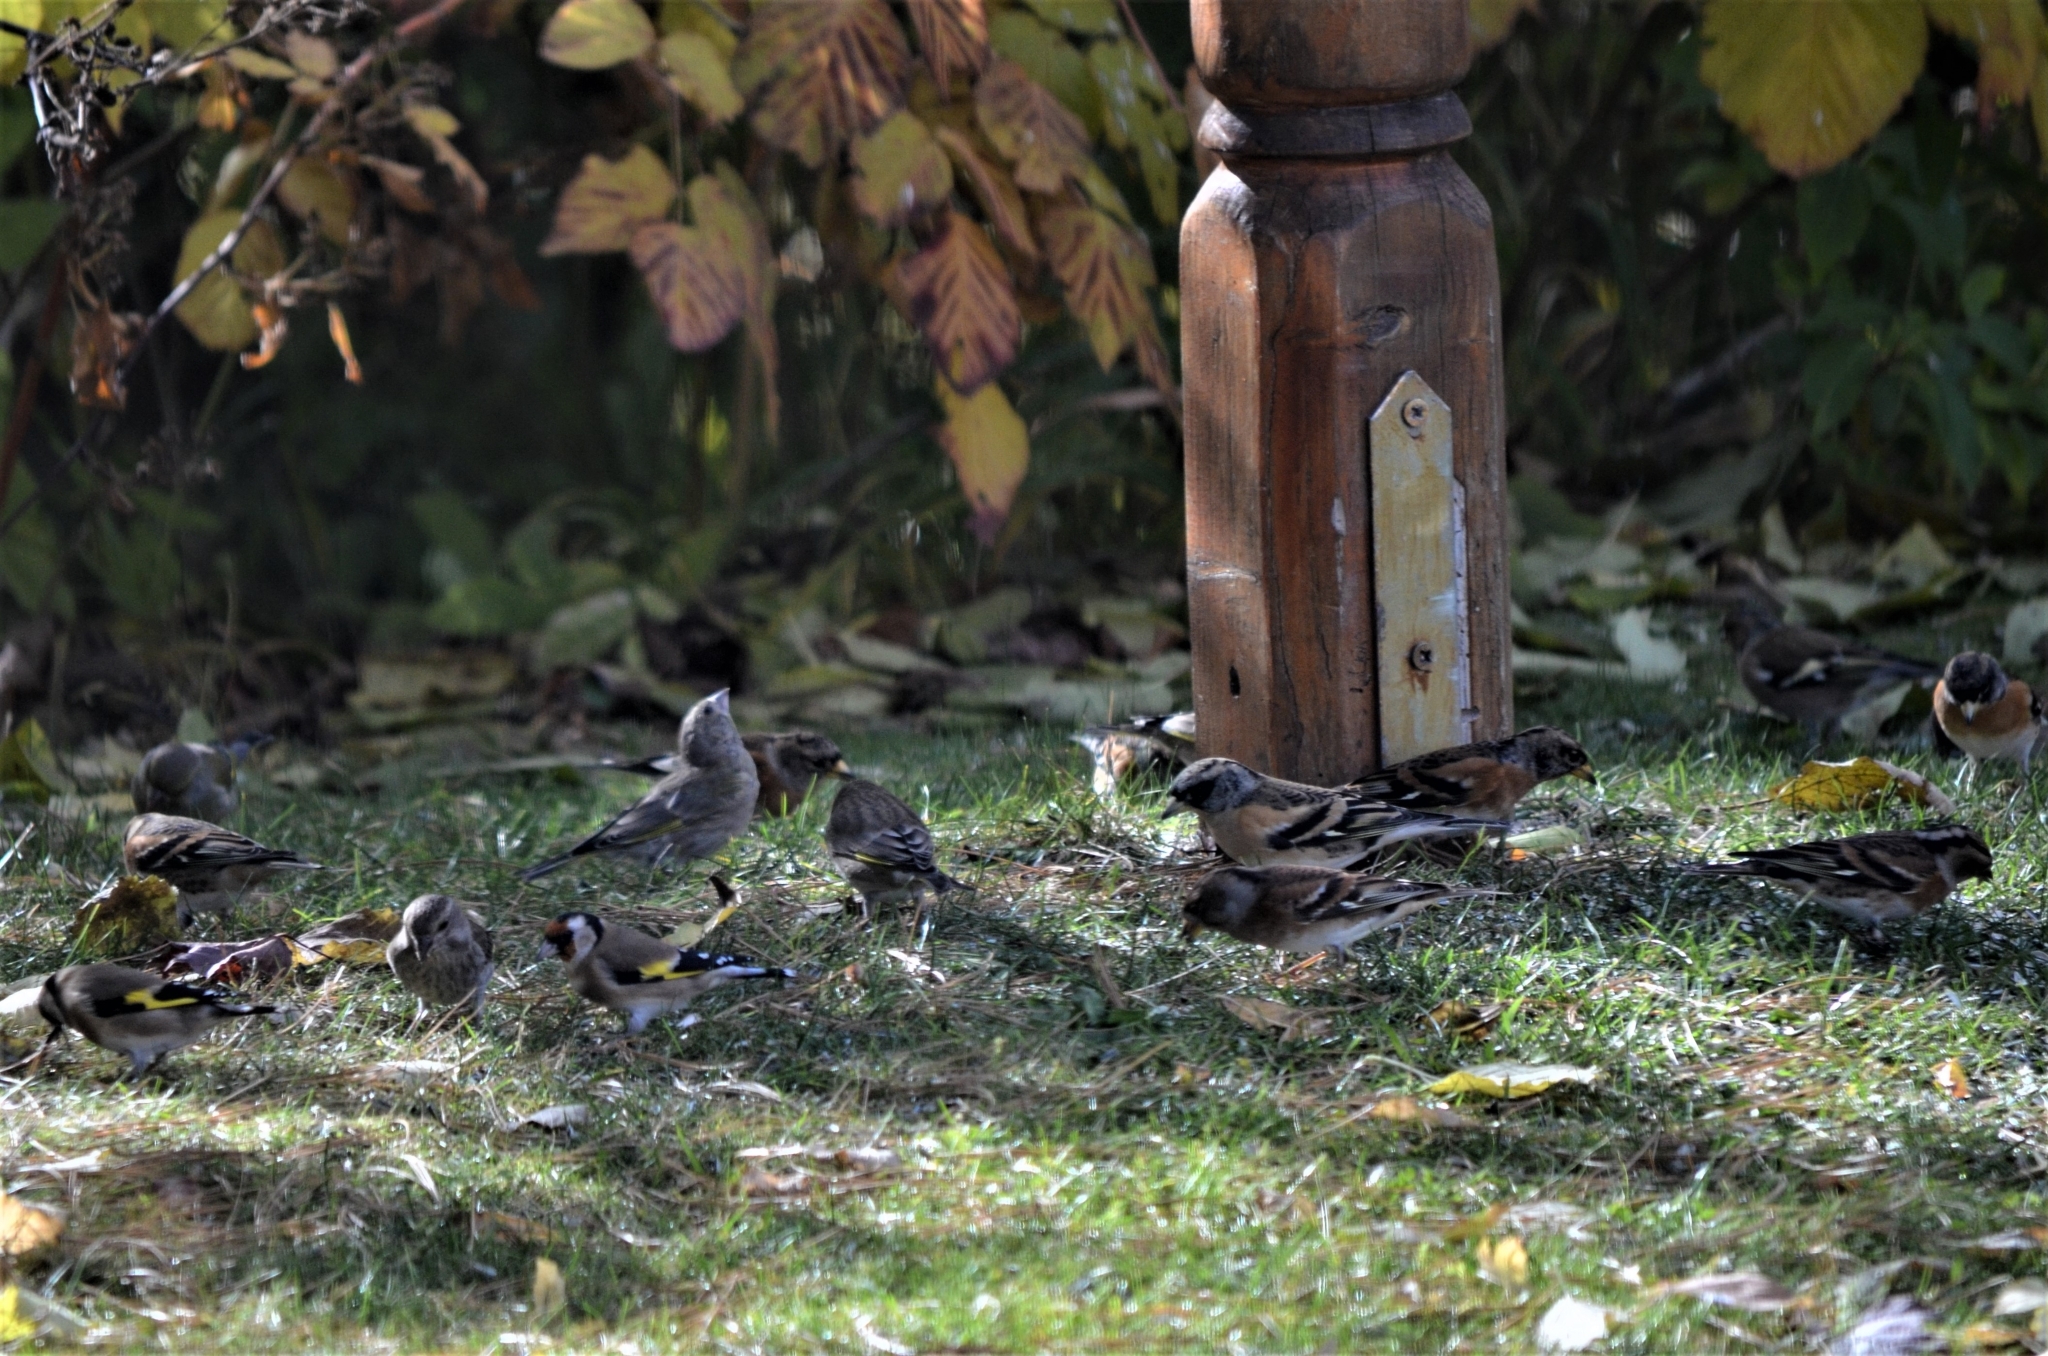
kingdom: Animalia
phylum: Chordata
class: Aves
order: Passeriformes
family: Fringillidae
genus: Fringilla
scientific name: Fringilla montifringilla
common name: Brambling
